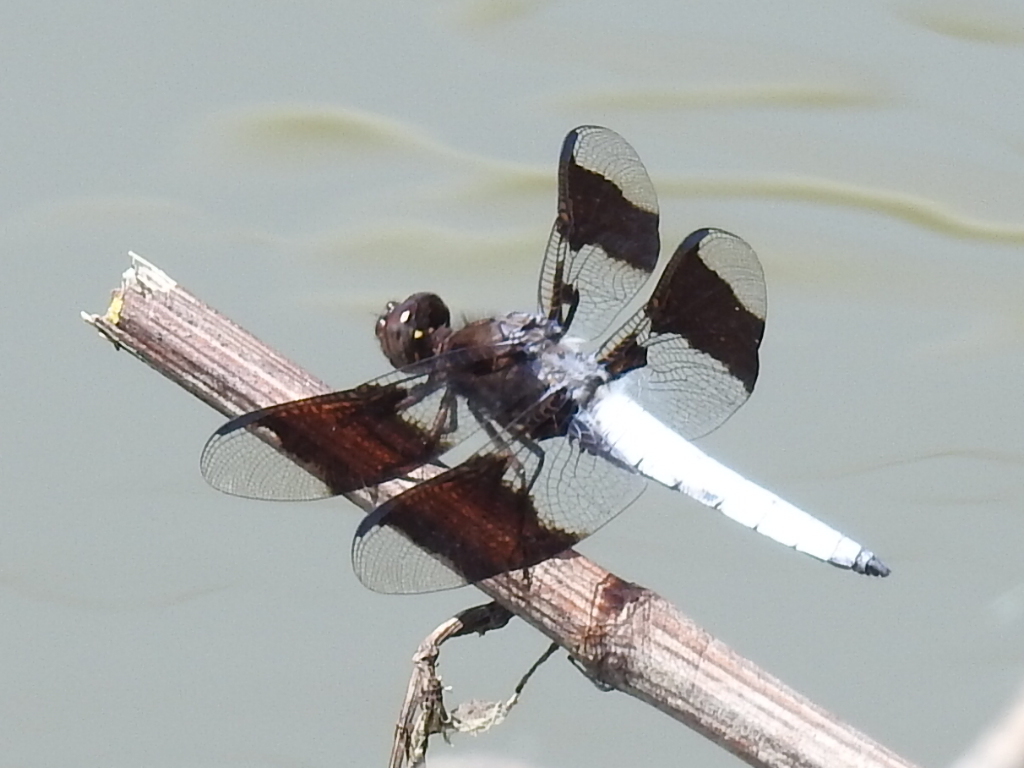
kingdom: Animalia
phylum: Arthropoda
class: Insecta
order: Odonata
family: Libellulidae
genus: Plathemis
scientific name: Plathemis lydia
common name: Common whitetail
